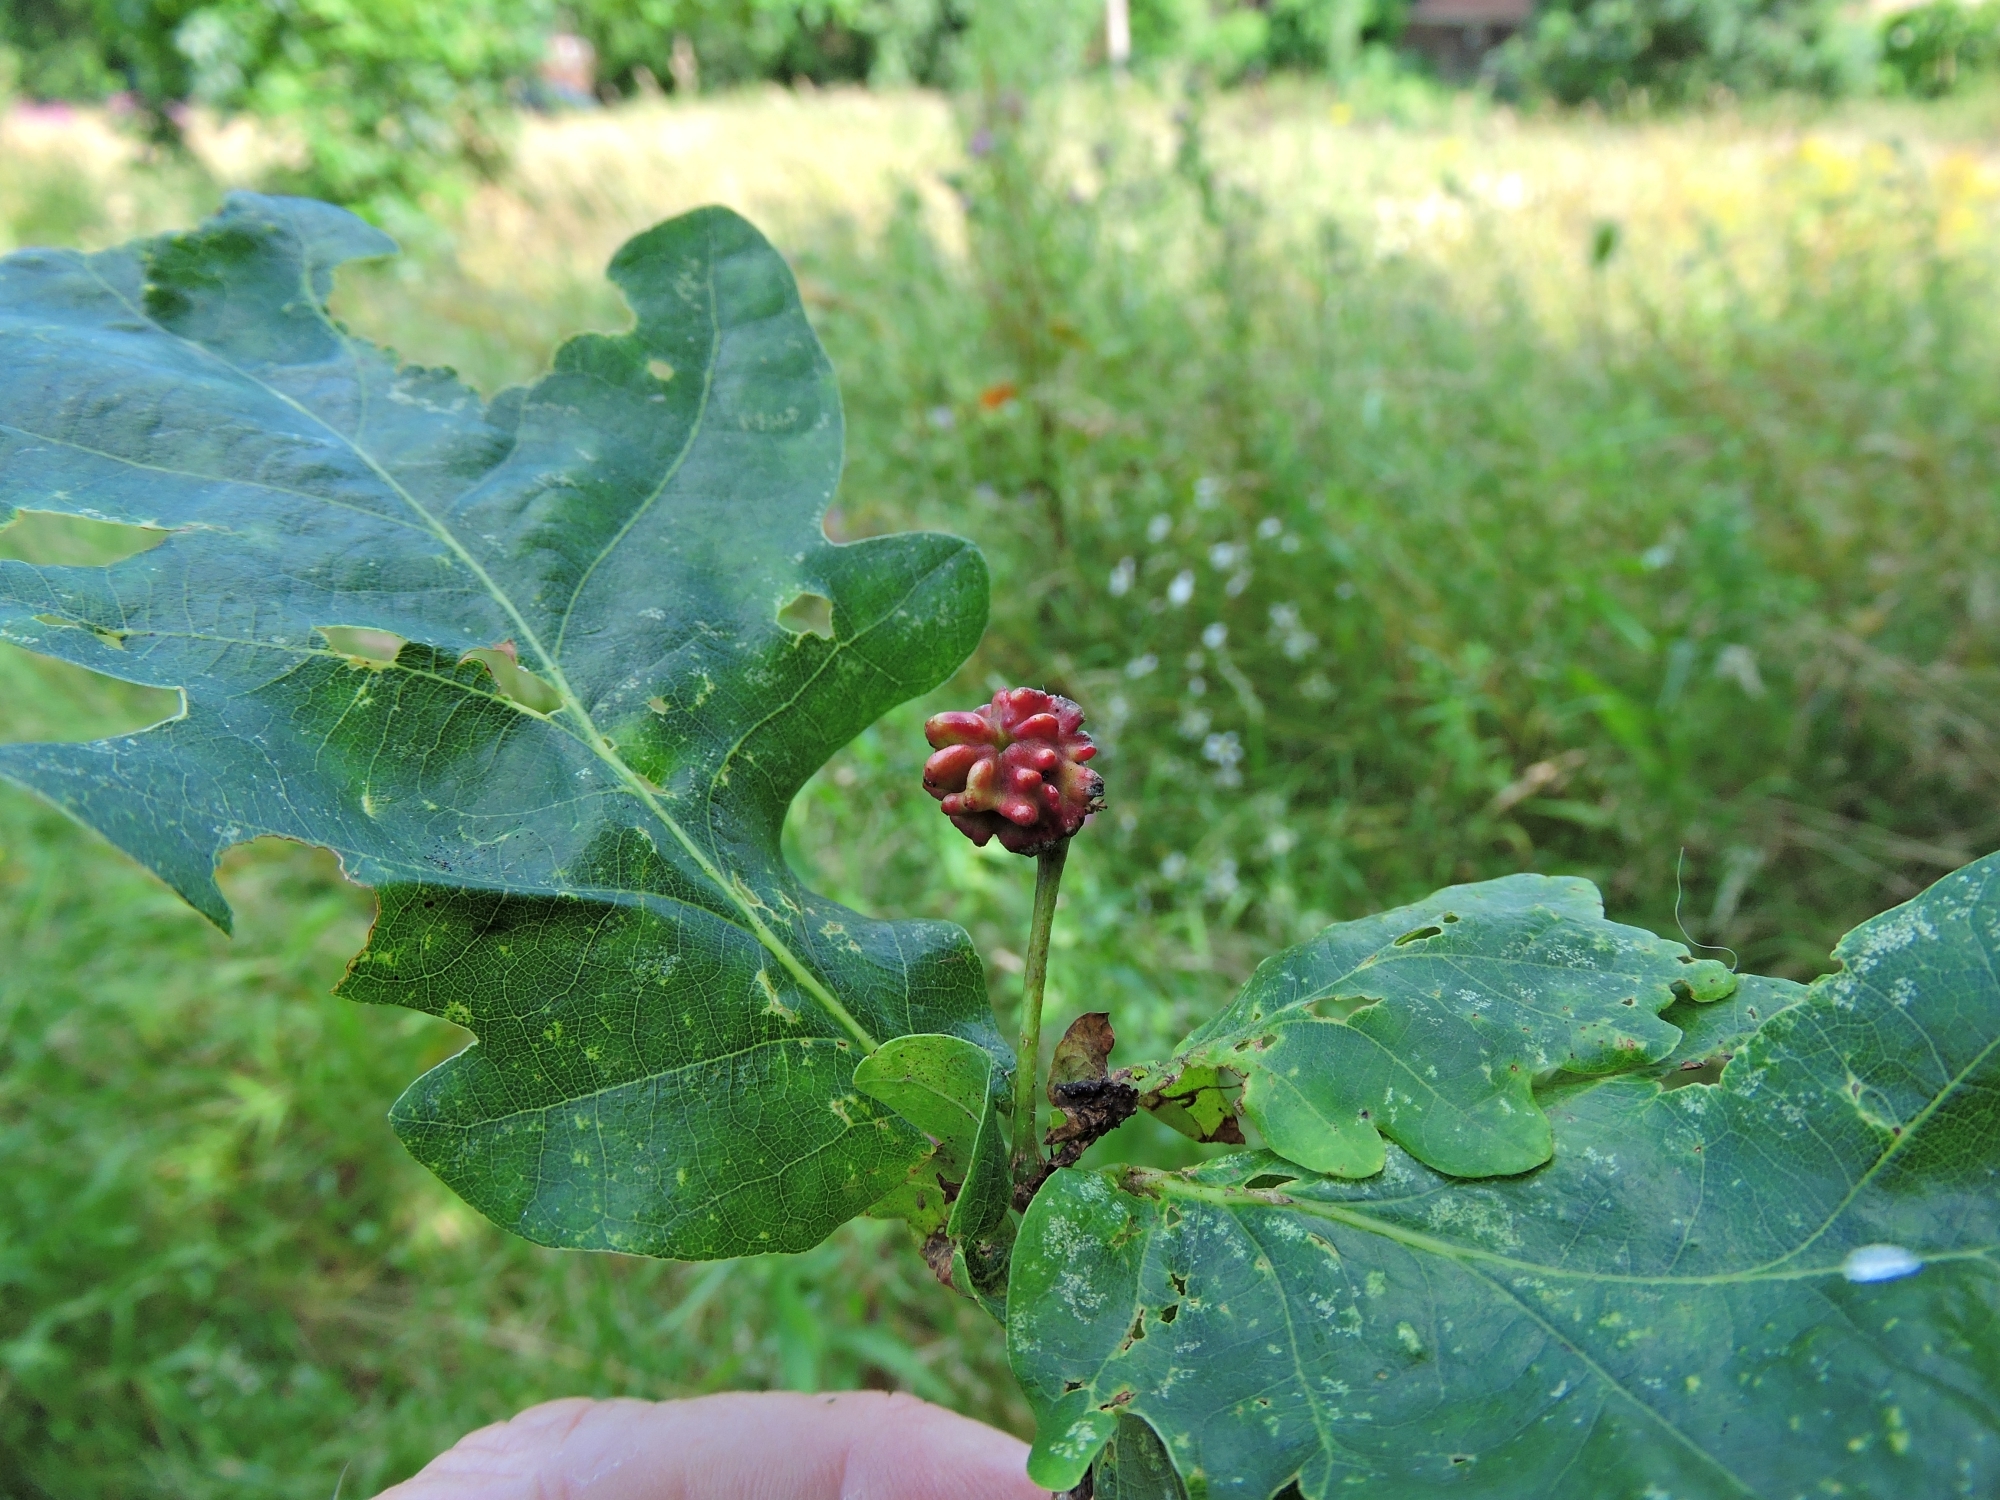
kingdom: Animalia
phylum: Arthropoda
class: Insecta
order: Hymenoptera
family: Cynipidae
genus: Andricus
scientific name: Andricus quercuscalicis
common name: Knopper gall
